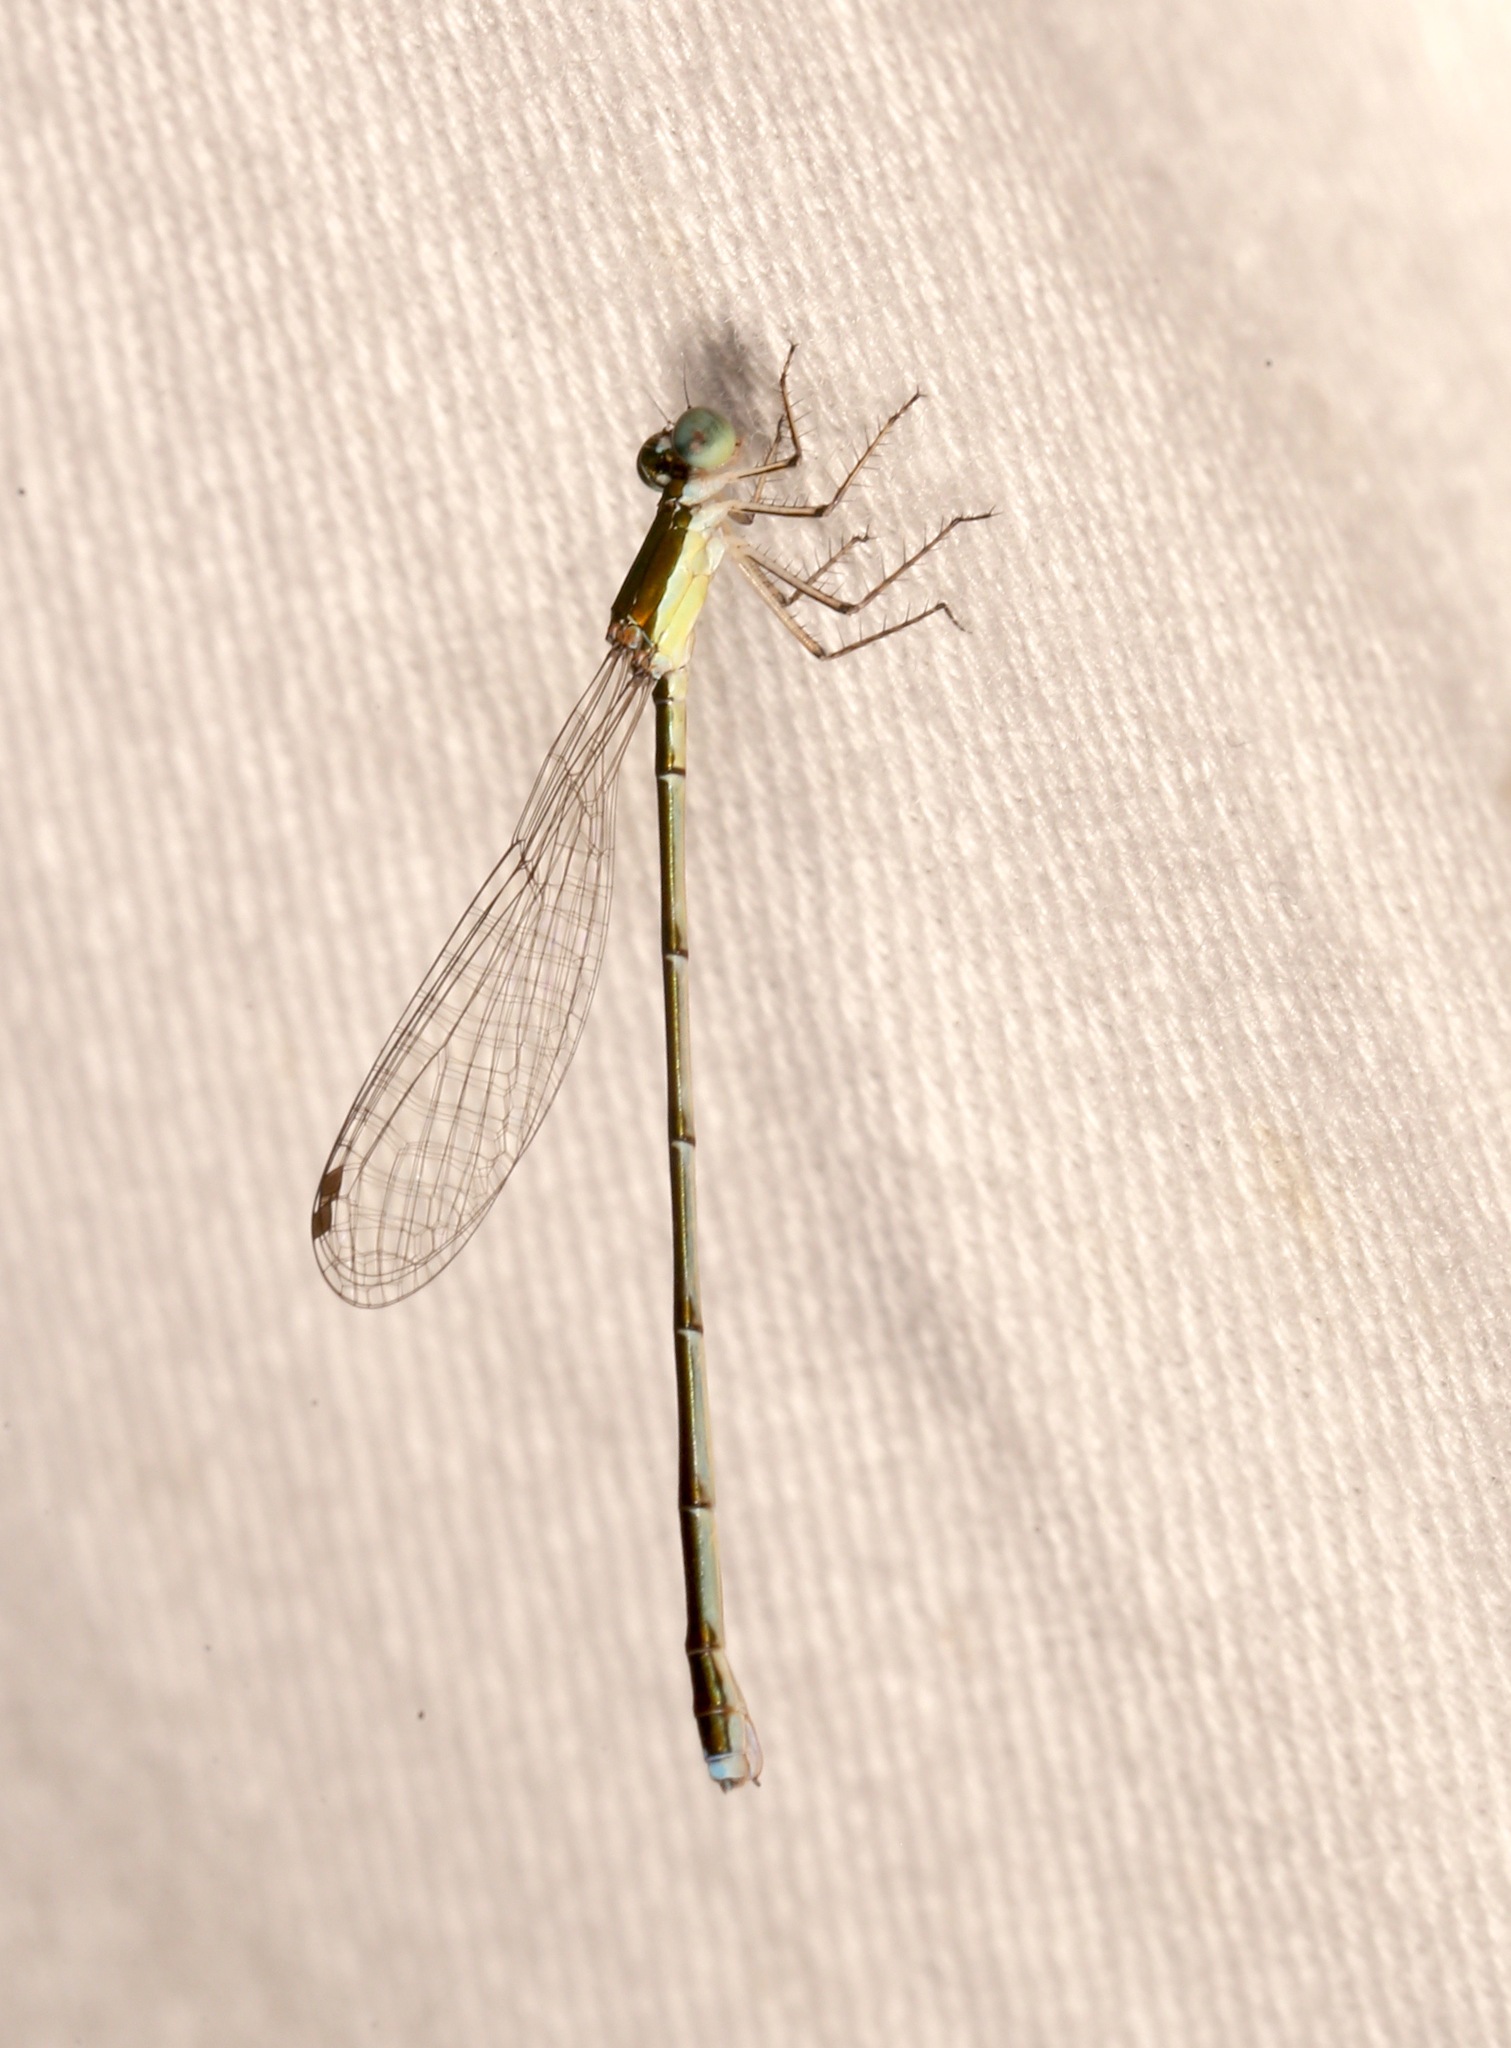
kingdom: Animalia
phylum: Arthropoda
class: Insecta
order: Odonata
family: Coenagrionidae
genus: Nehalennia
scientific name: Nehalennia integricollis
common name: Southern sprite
